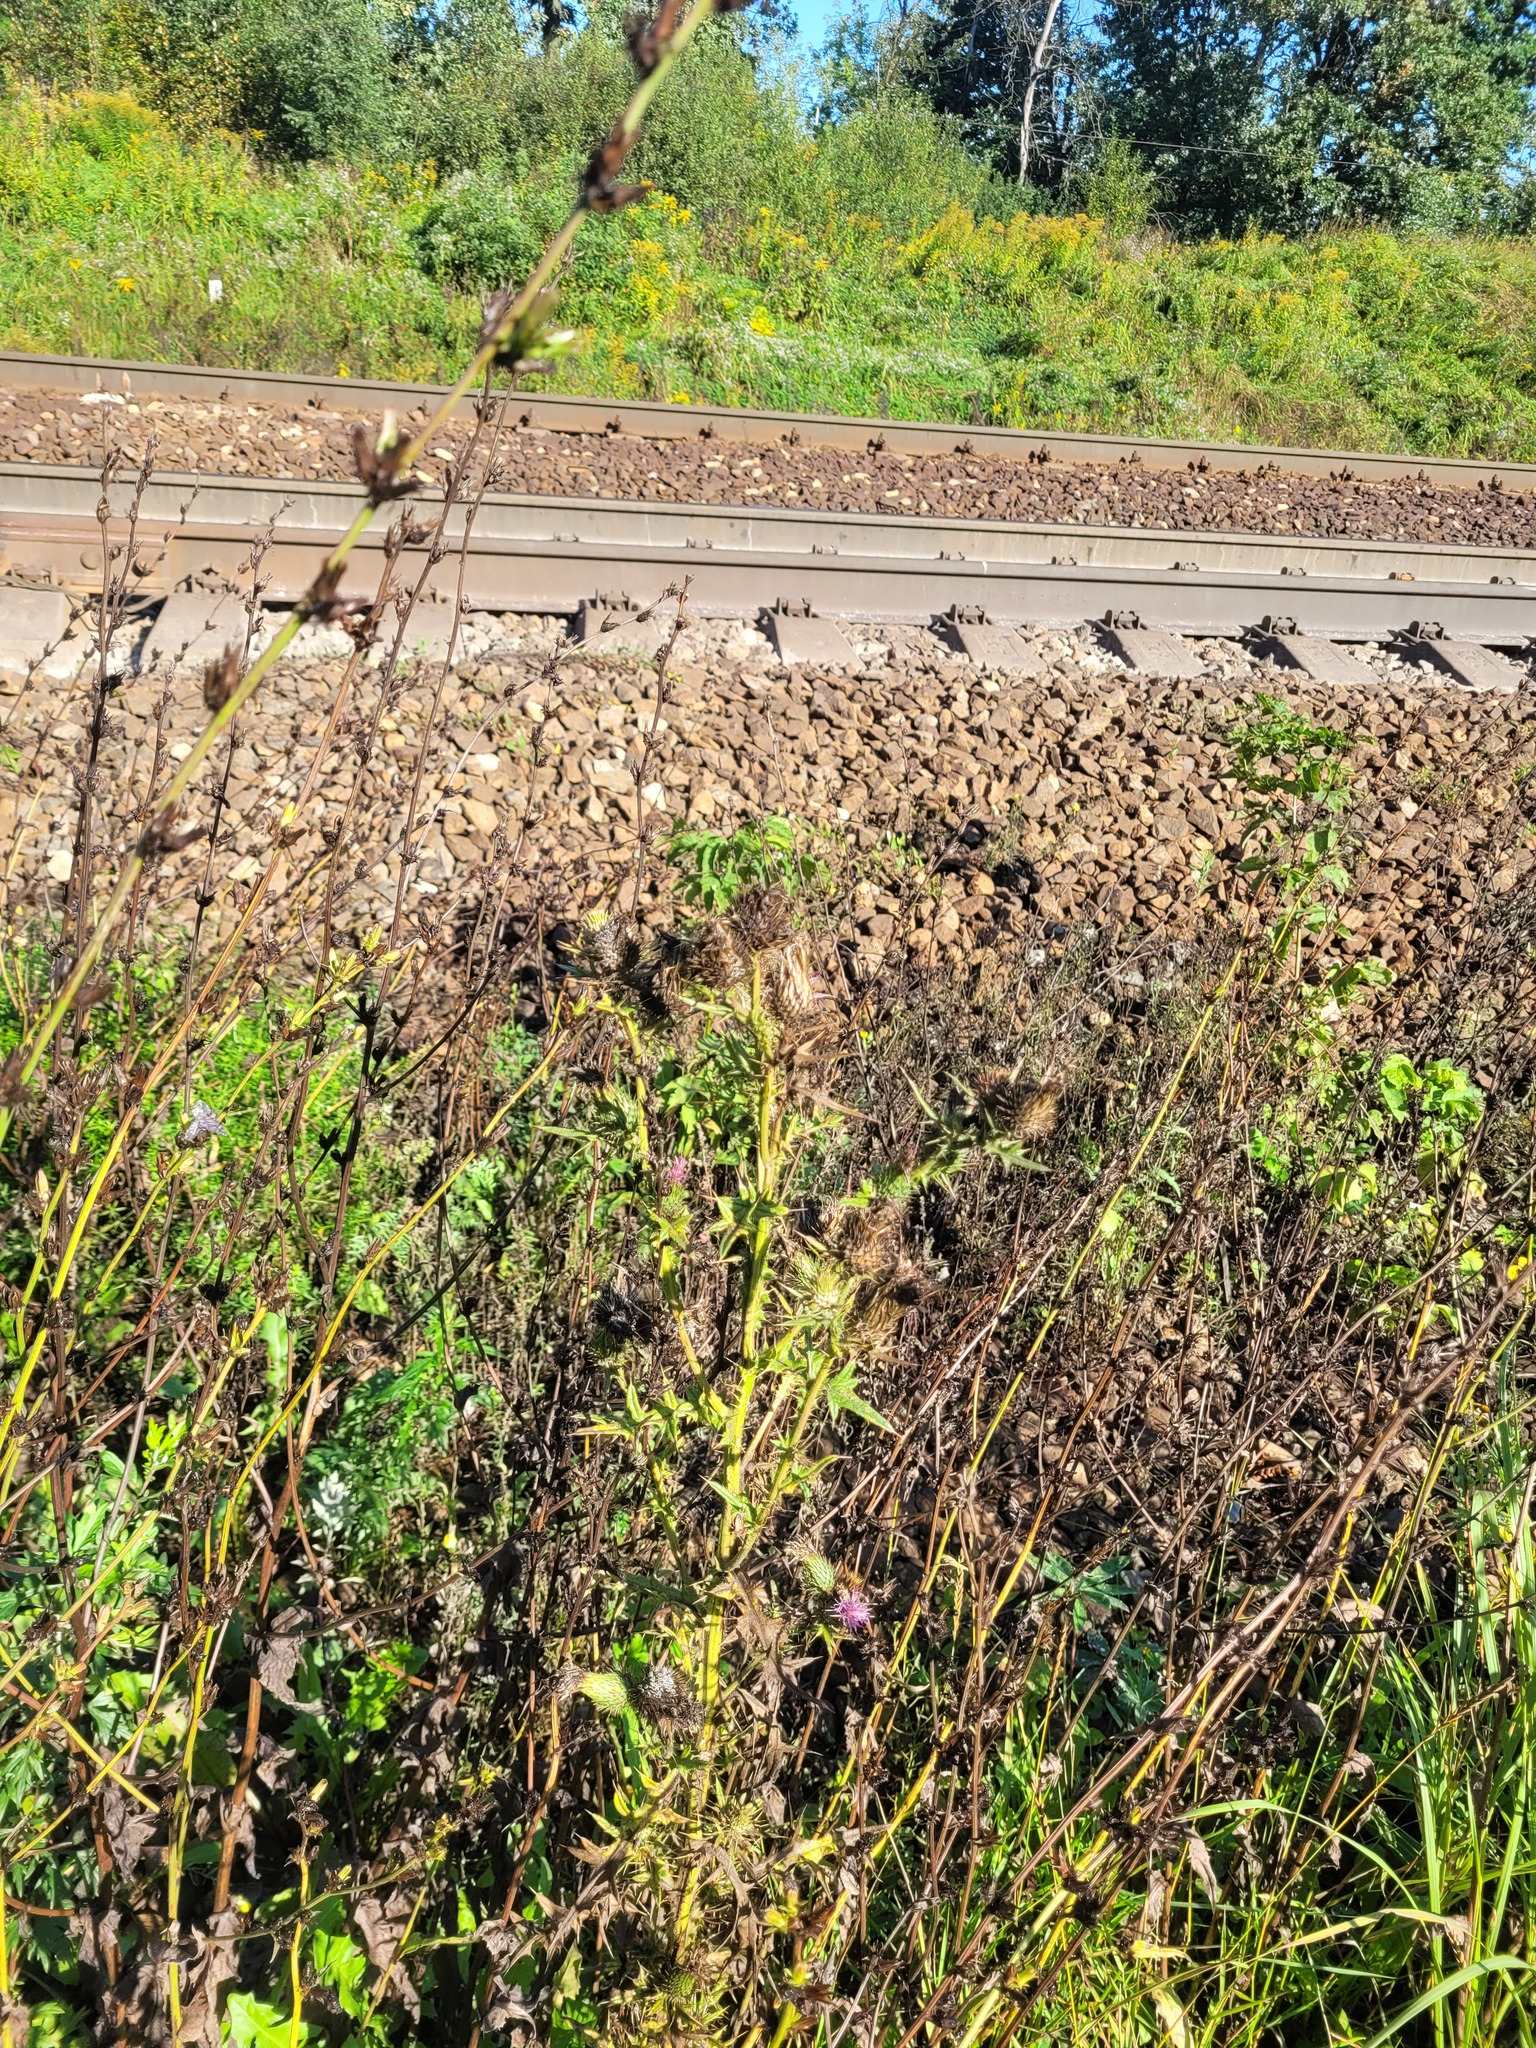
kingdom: Plantae
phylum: Tracheophyta
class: Magnoliopsida
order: Asterales
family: Asteraceae
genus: Cirsium
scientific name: Cirsium vulgare
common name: Bull thistle
